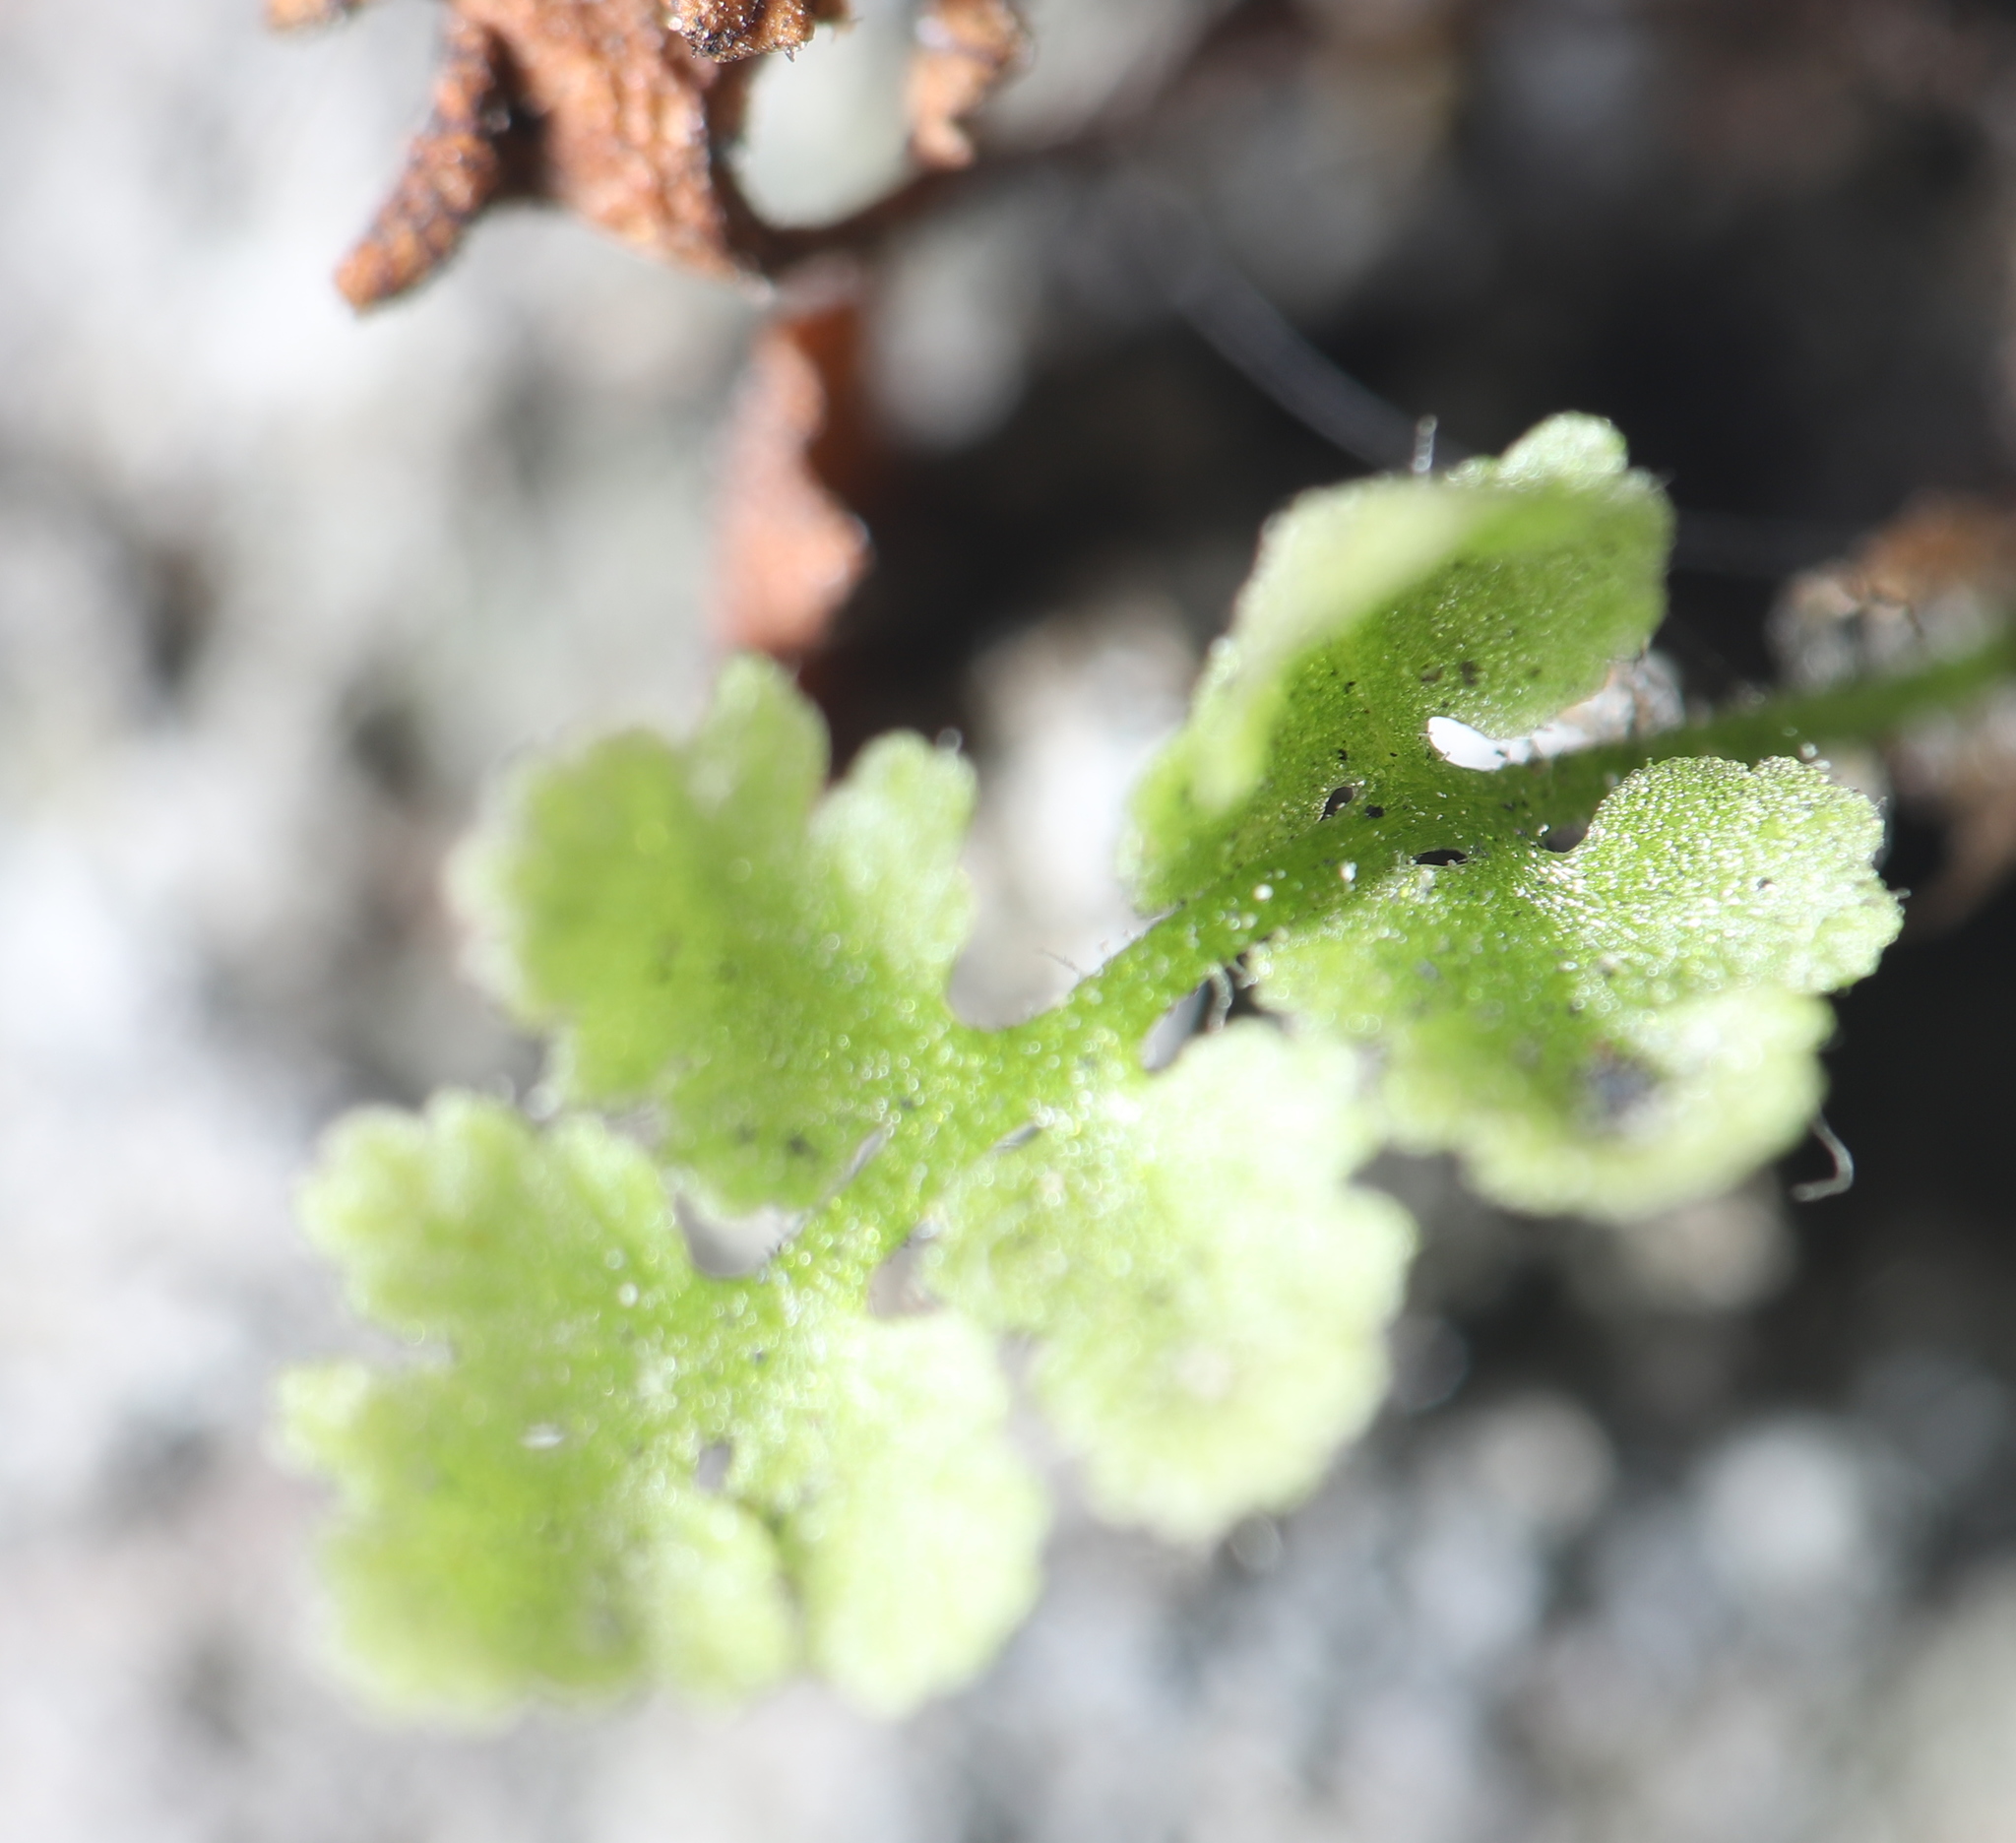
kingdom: Plantae
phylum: Tracheophyta
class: Polypodiopsida
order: Polypodiales
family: Woodsiaceae
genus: Physematium
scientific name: Physematium obtusum
